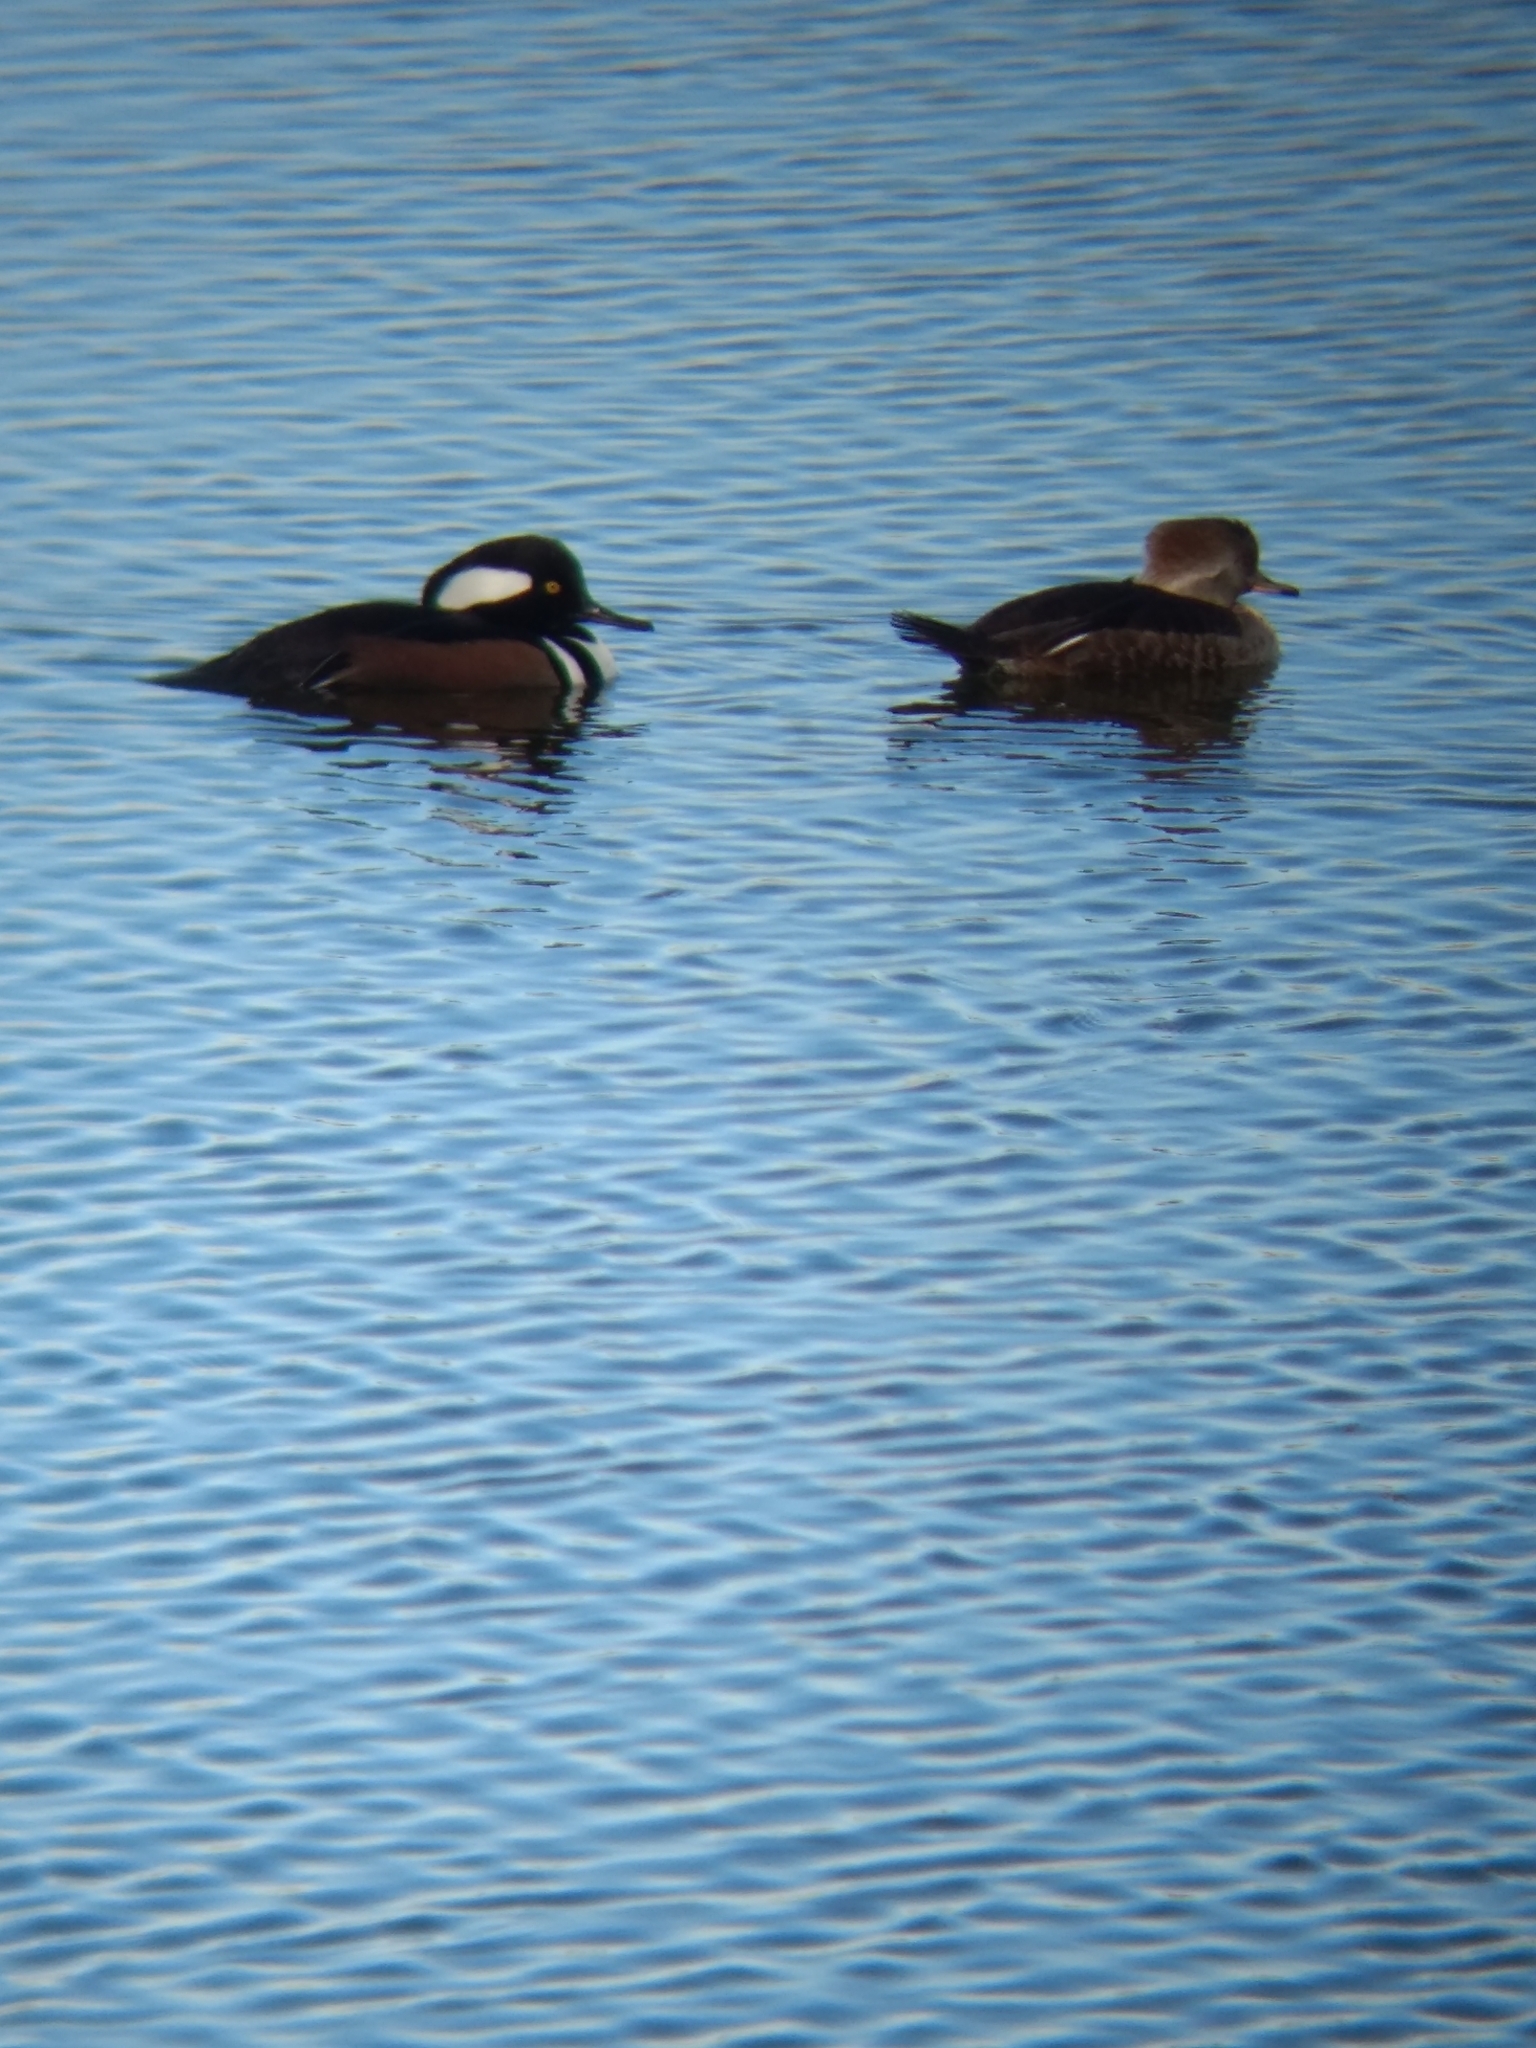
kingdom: Animalia
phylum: Chordata
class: Aves
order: Anseriformes
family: Anatidae
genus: Lophodytes
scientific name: Lophodytes cucullatus
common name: Hooded merganser
